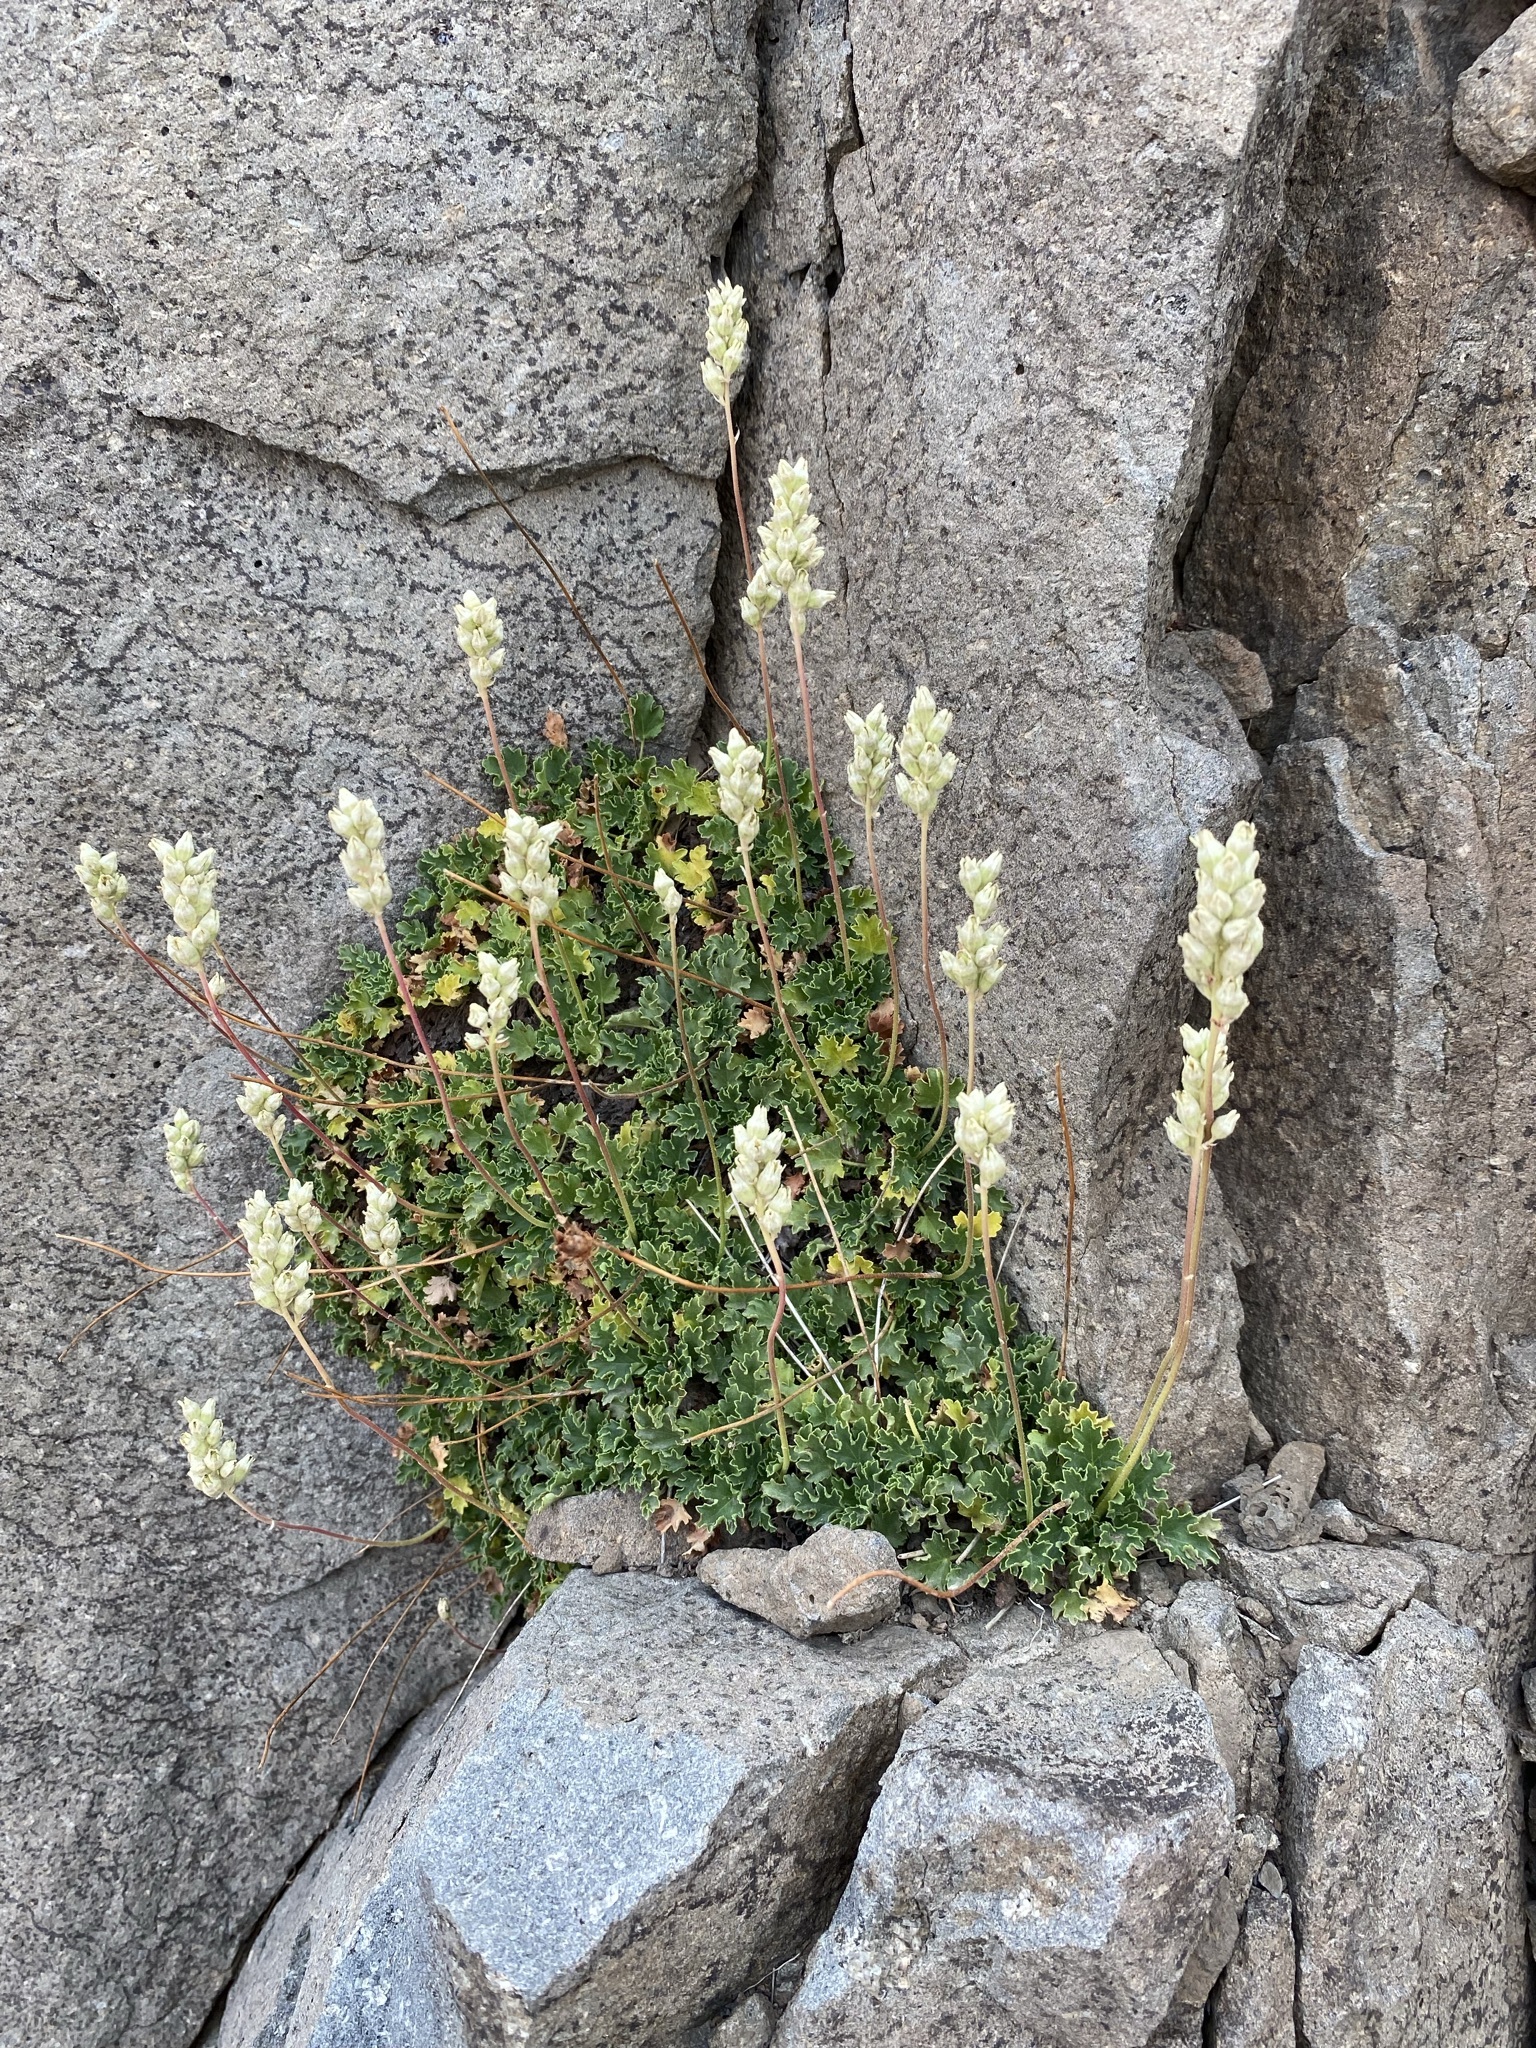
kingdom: Plantae
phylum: Tracheophyta
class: Magnoliopsida
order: Saxifragales
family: Saxifragaceae
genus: Heuchera
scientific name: Heuchera cylindrica
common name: Mat alumroot
